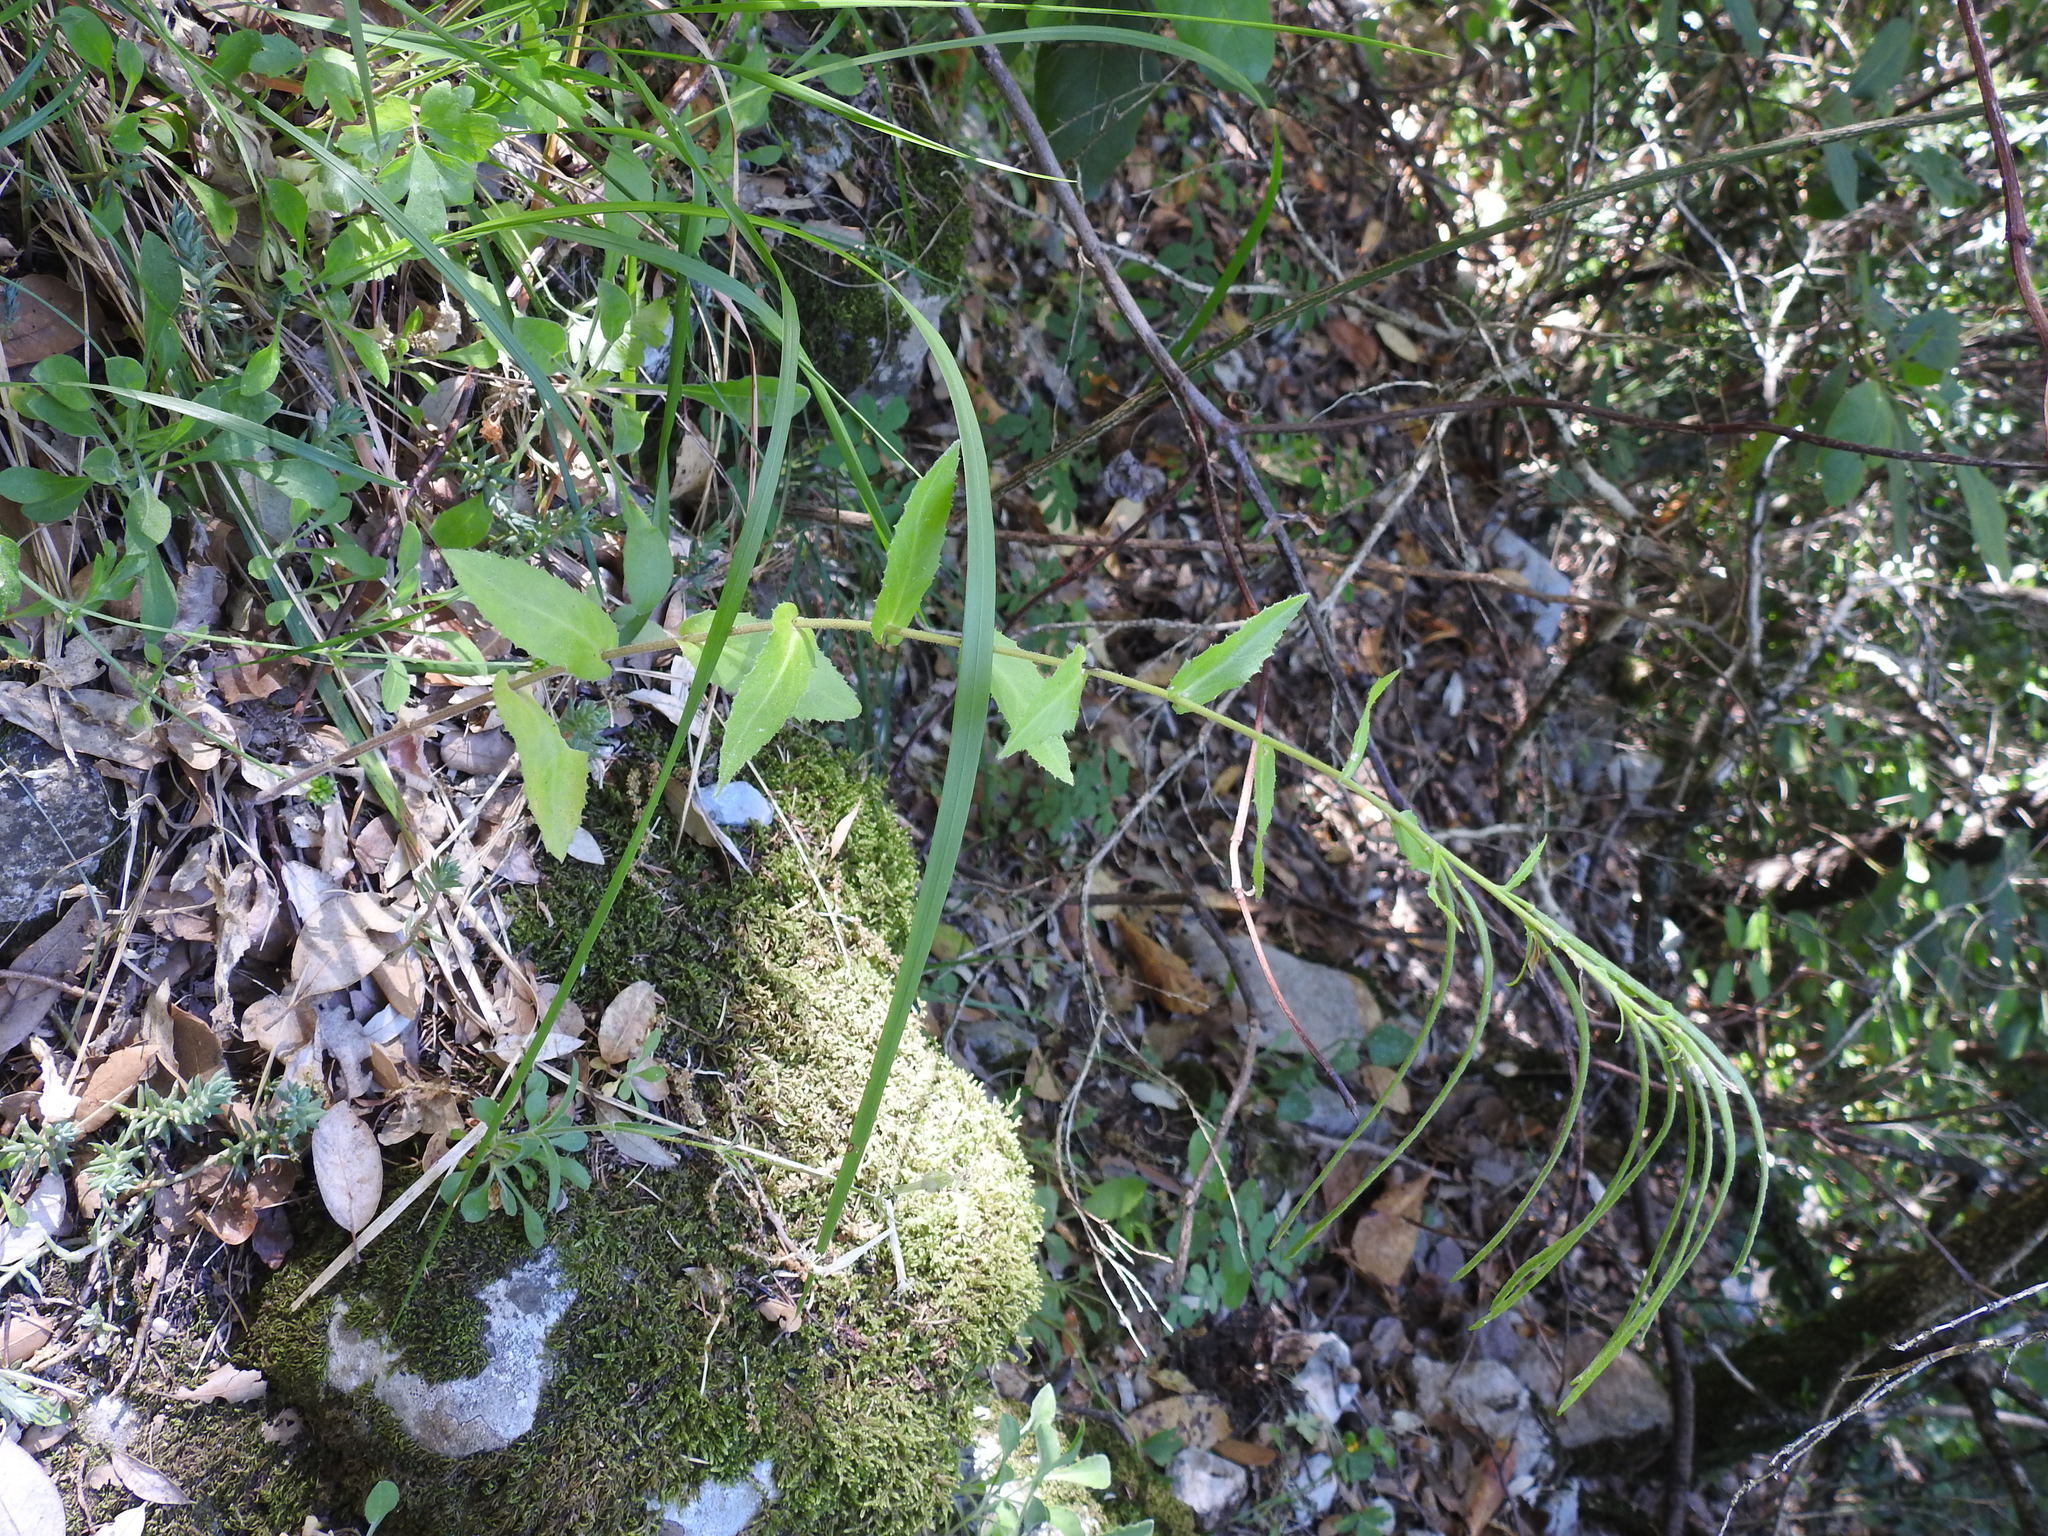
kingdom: Plantae
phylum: Tracheophyta
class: Magnoliopsida
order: Brassicales
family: Brassicaceae
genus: Pseudoturritis
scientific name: Pseudoturritis turrita
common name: Tower cress
